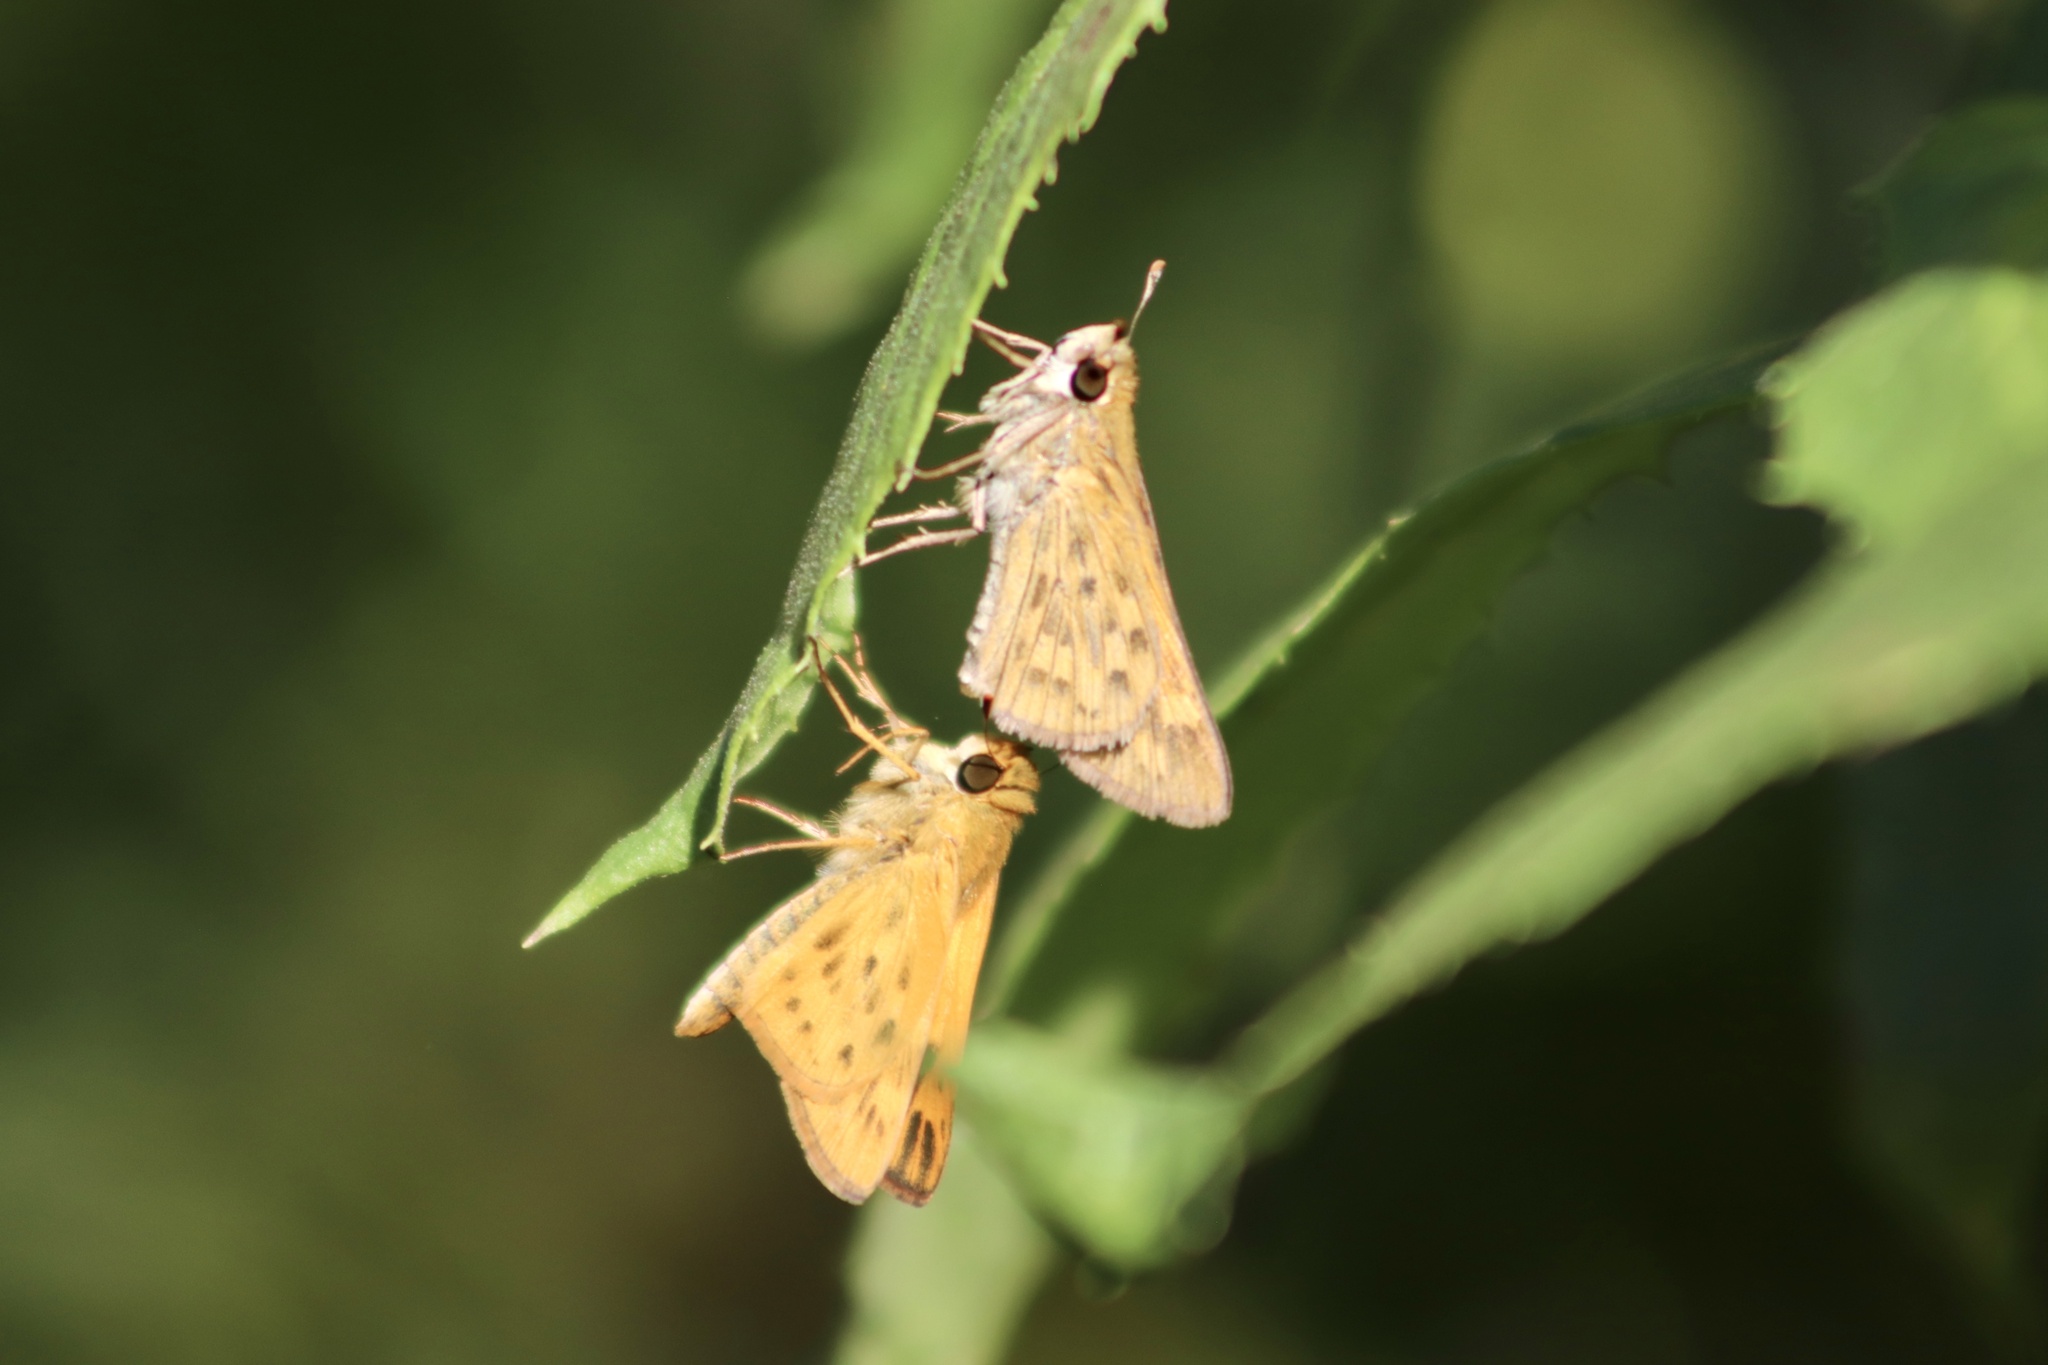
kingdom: Animalia
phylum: Arthropoda
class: Insecta
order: Lepidoptera
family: Hesperiidae
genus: Hylephila
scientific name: Hylephila phyleus
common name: Fiery skipper
